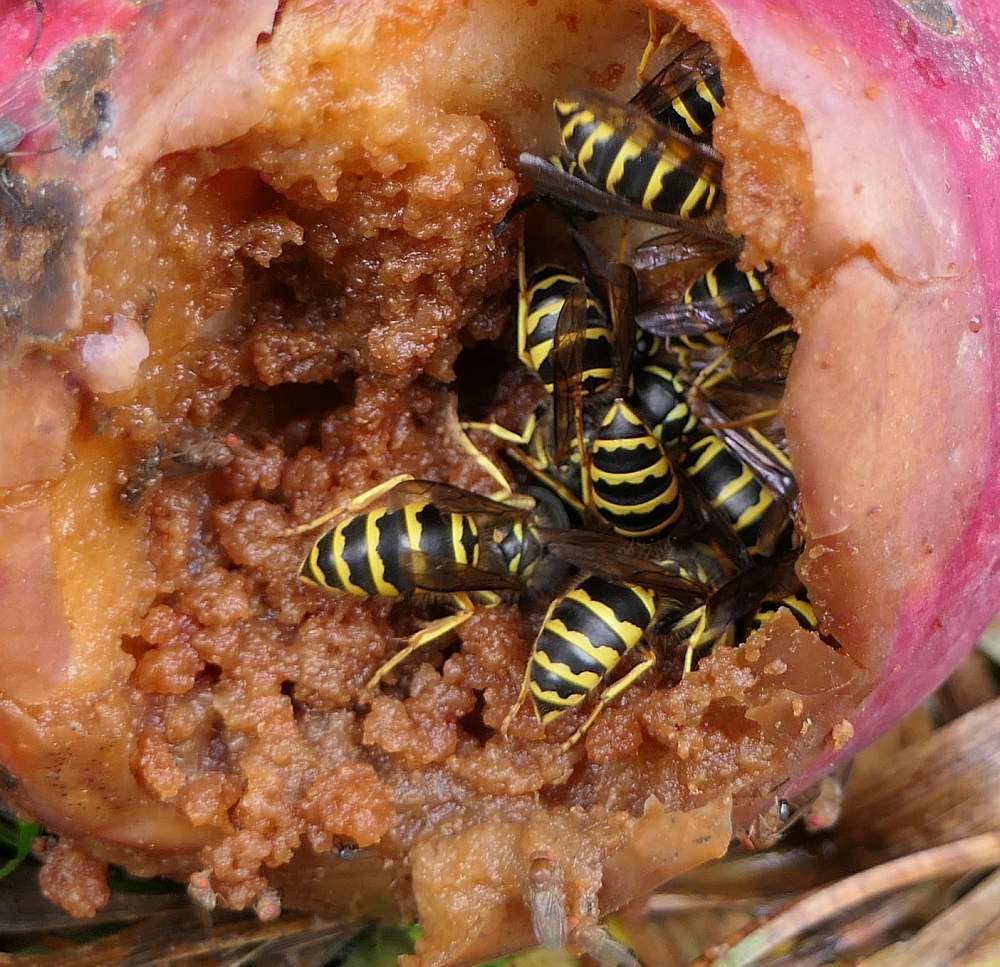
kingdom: Animalia
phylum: Arthropoda
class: Insecta
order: Hymenoptera
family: Vespidae
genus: Vespula
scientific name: Vespula maculifrons
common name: Eastern yellowjacket
